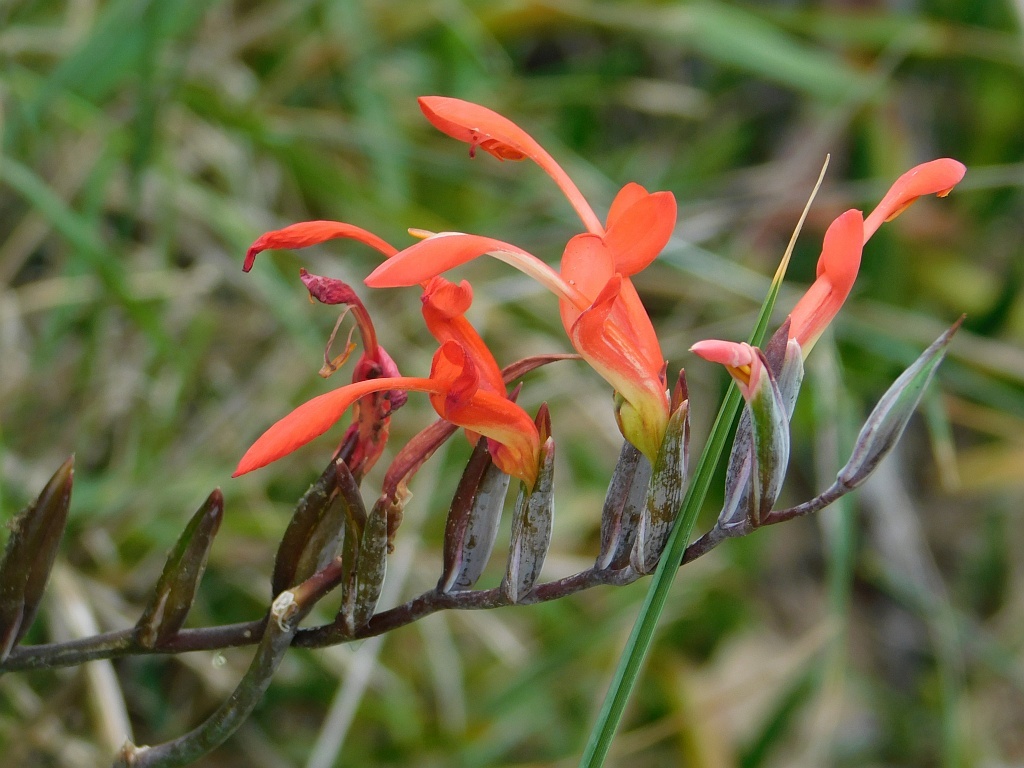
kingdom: Plantae
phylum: Tracheophyta
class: Liliopsida
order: Asparagales
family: Iridaceae
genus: Gladiolus
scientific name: Gladiolus cunonius
